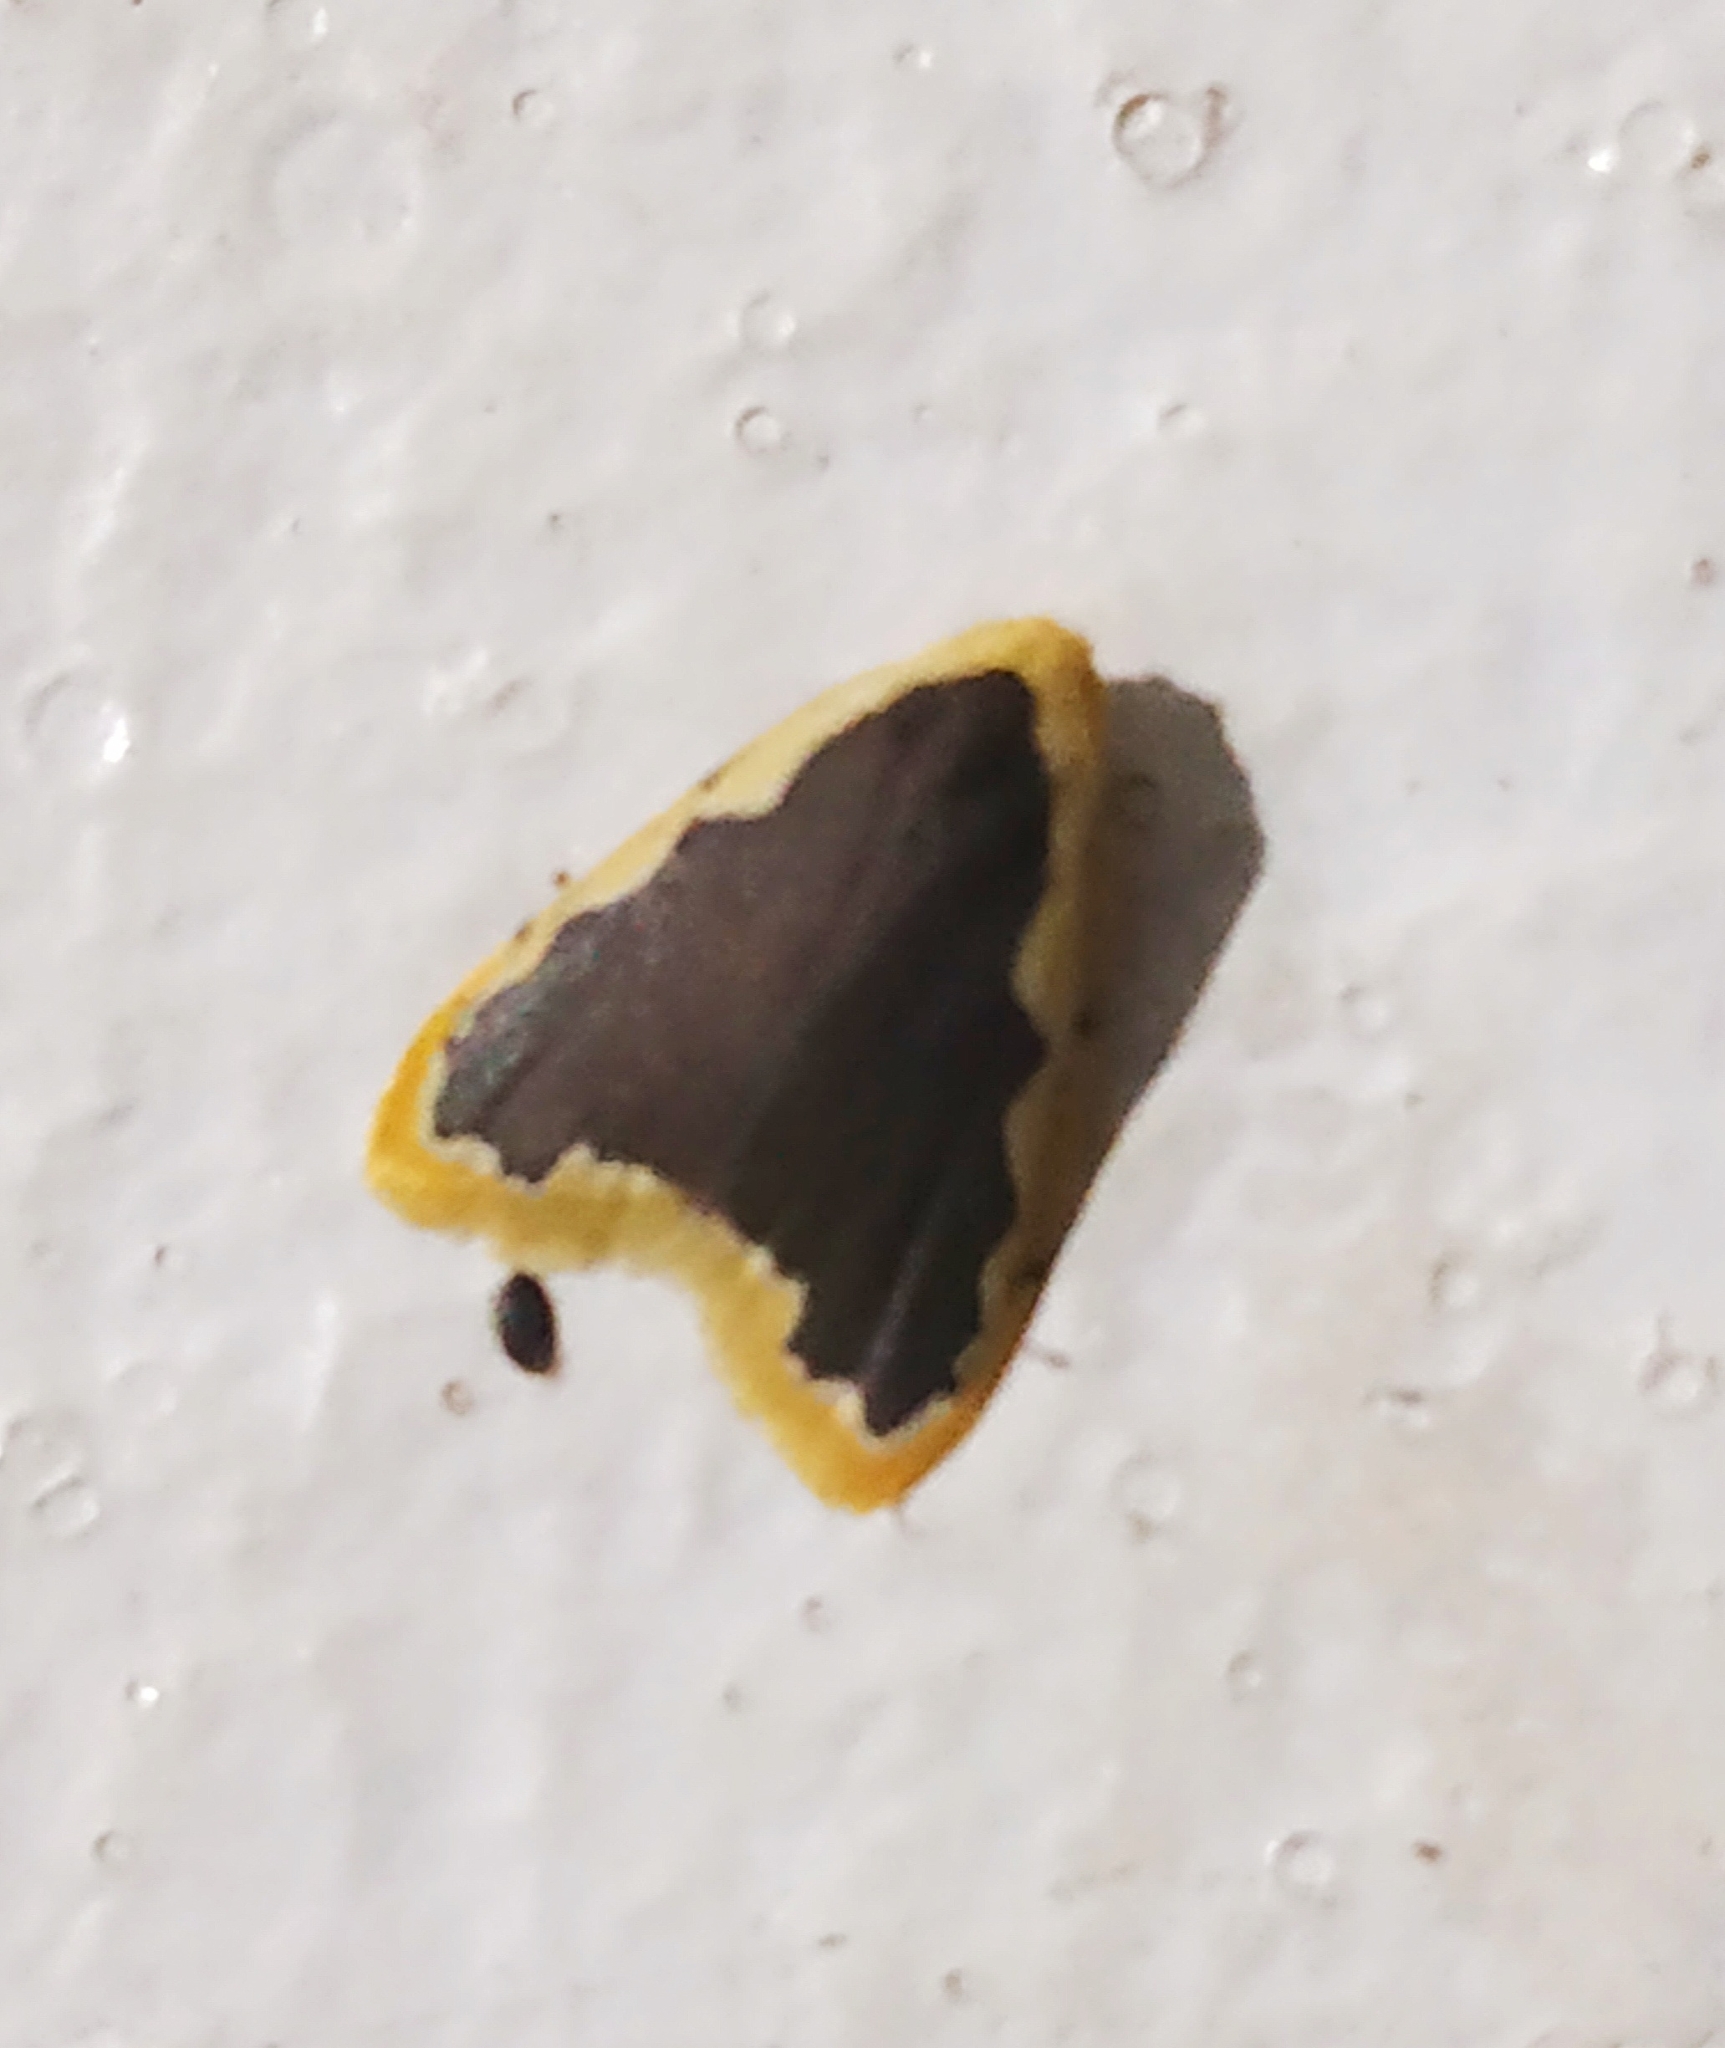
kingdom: Animalia
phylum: Arthropoda
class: Insecta
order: Lepidoptera
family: Erebidae
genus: Diduga
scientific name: Diduga flavicostata
